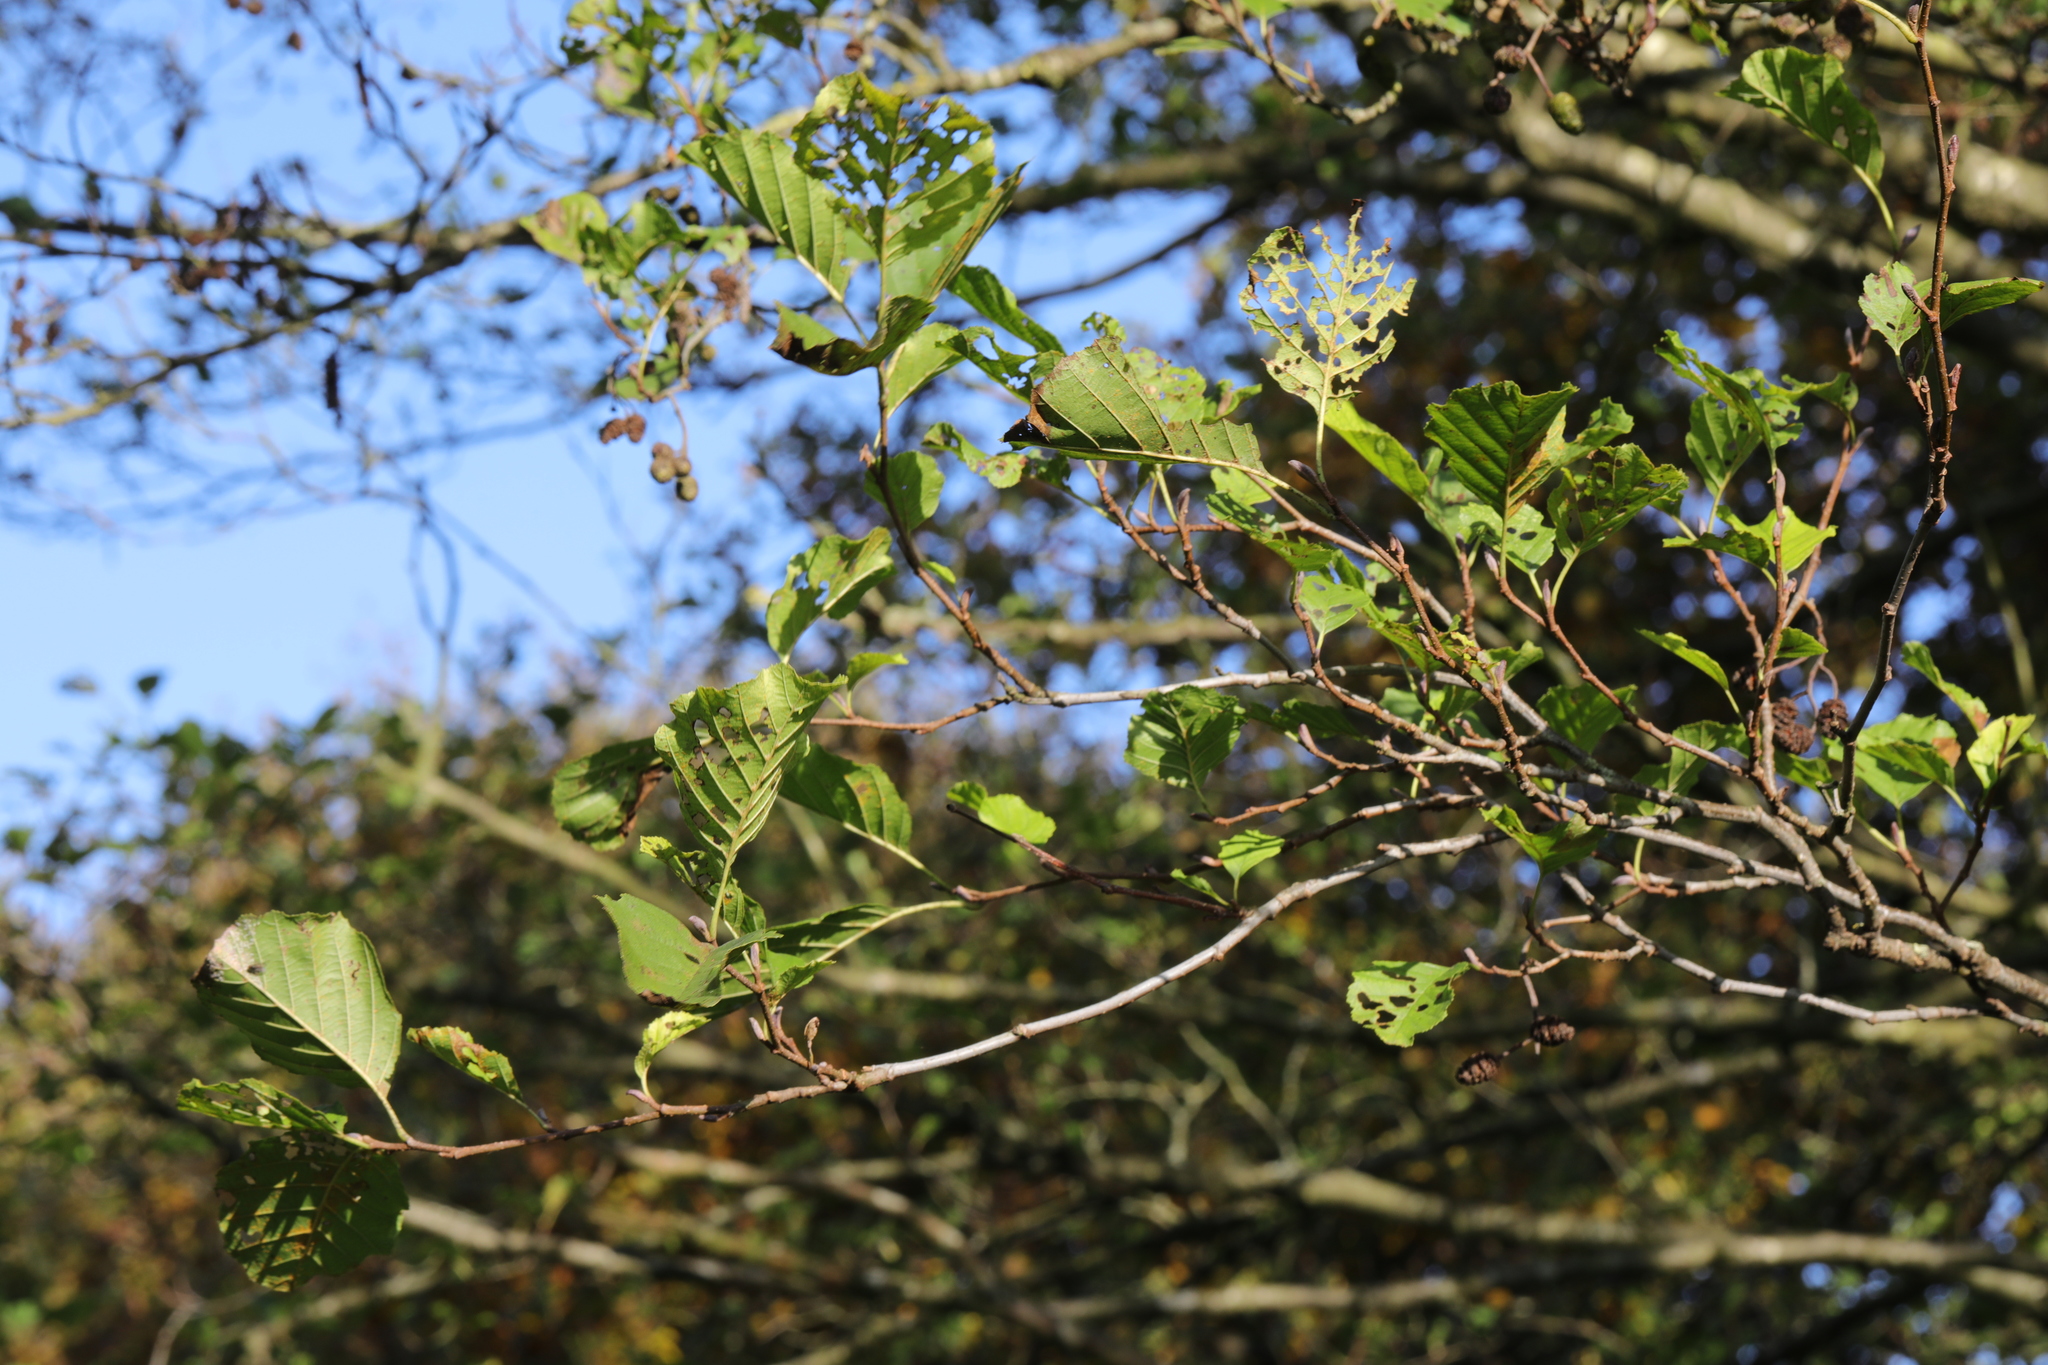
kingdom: Plantae
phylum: Tracheophyta
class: Magnoliopsida
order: Fagales
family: Betulaceae
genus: Alnus
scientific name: Alnus glutinosa
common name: Black alder
